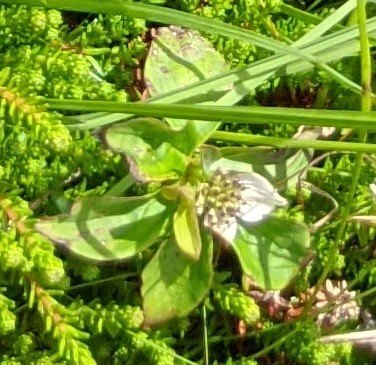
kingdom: Plantae
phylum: Tracheophyta
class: Magnoliopsida
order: Cornales
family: Cornaceae
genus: Cornus
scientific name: Cornus canadensis
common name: Creeping dogwood
